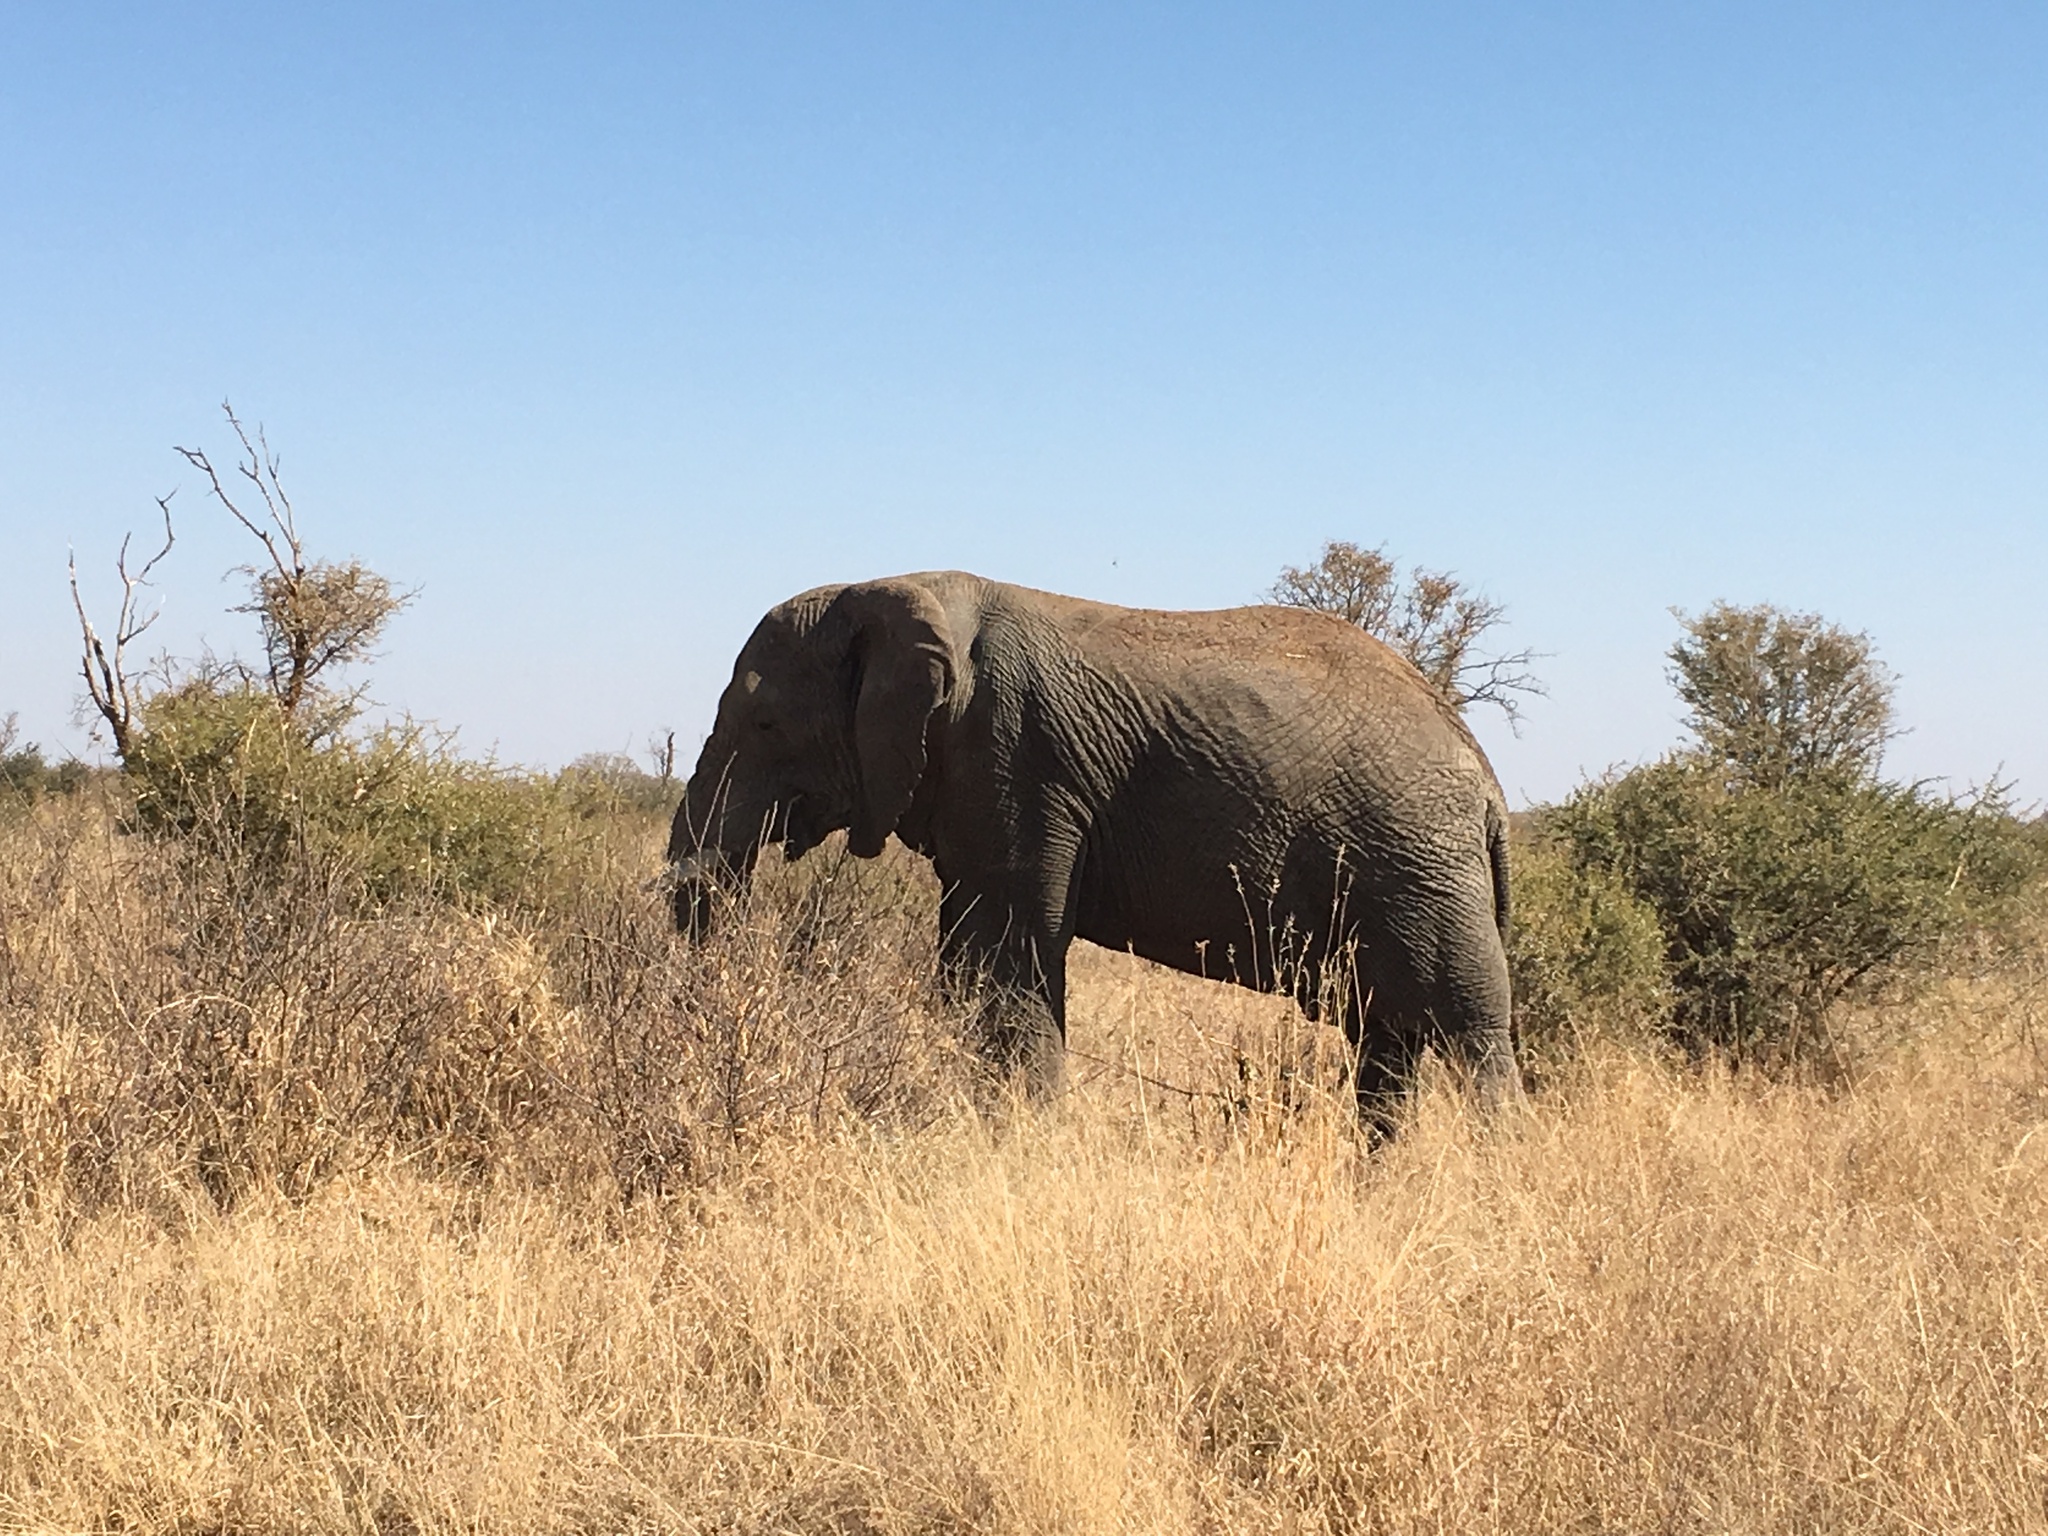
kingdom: Animalia
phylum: Chordata
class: Mammalia
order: Proboscidea
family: Elephantidae
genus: Loxodonta
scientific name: Loxodonta africana
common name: African elephant
